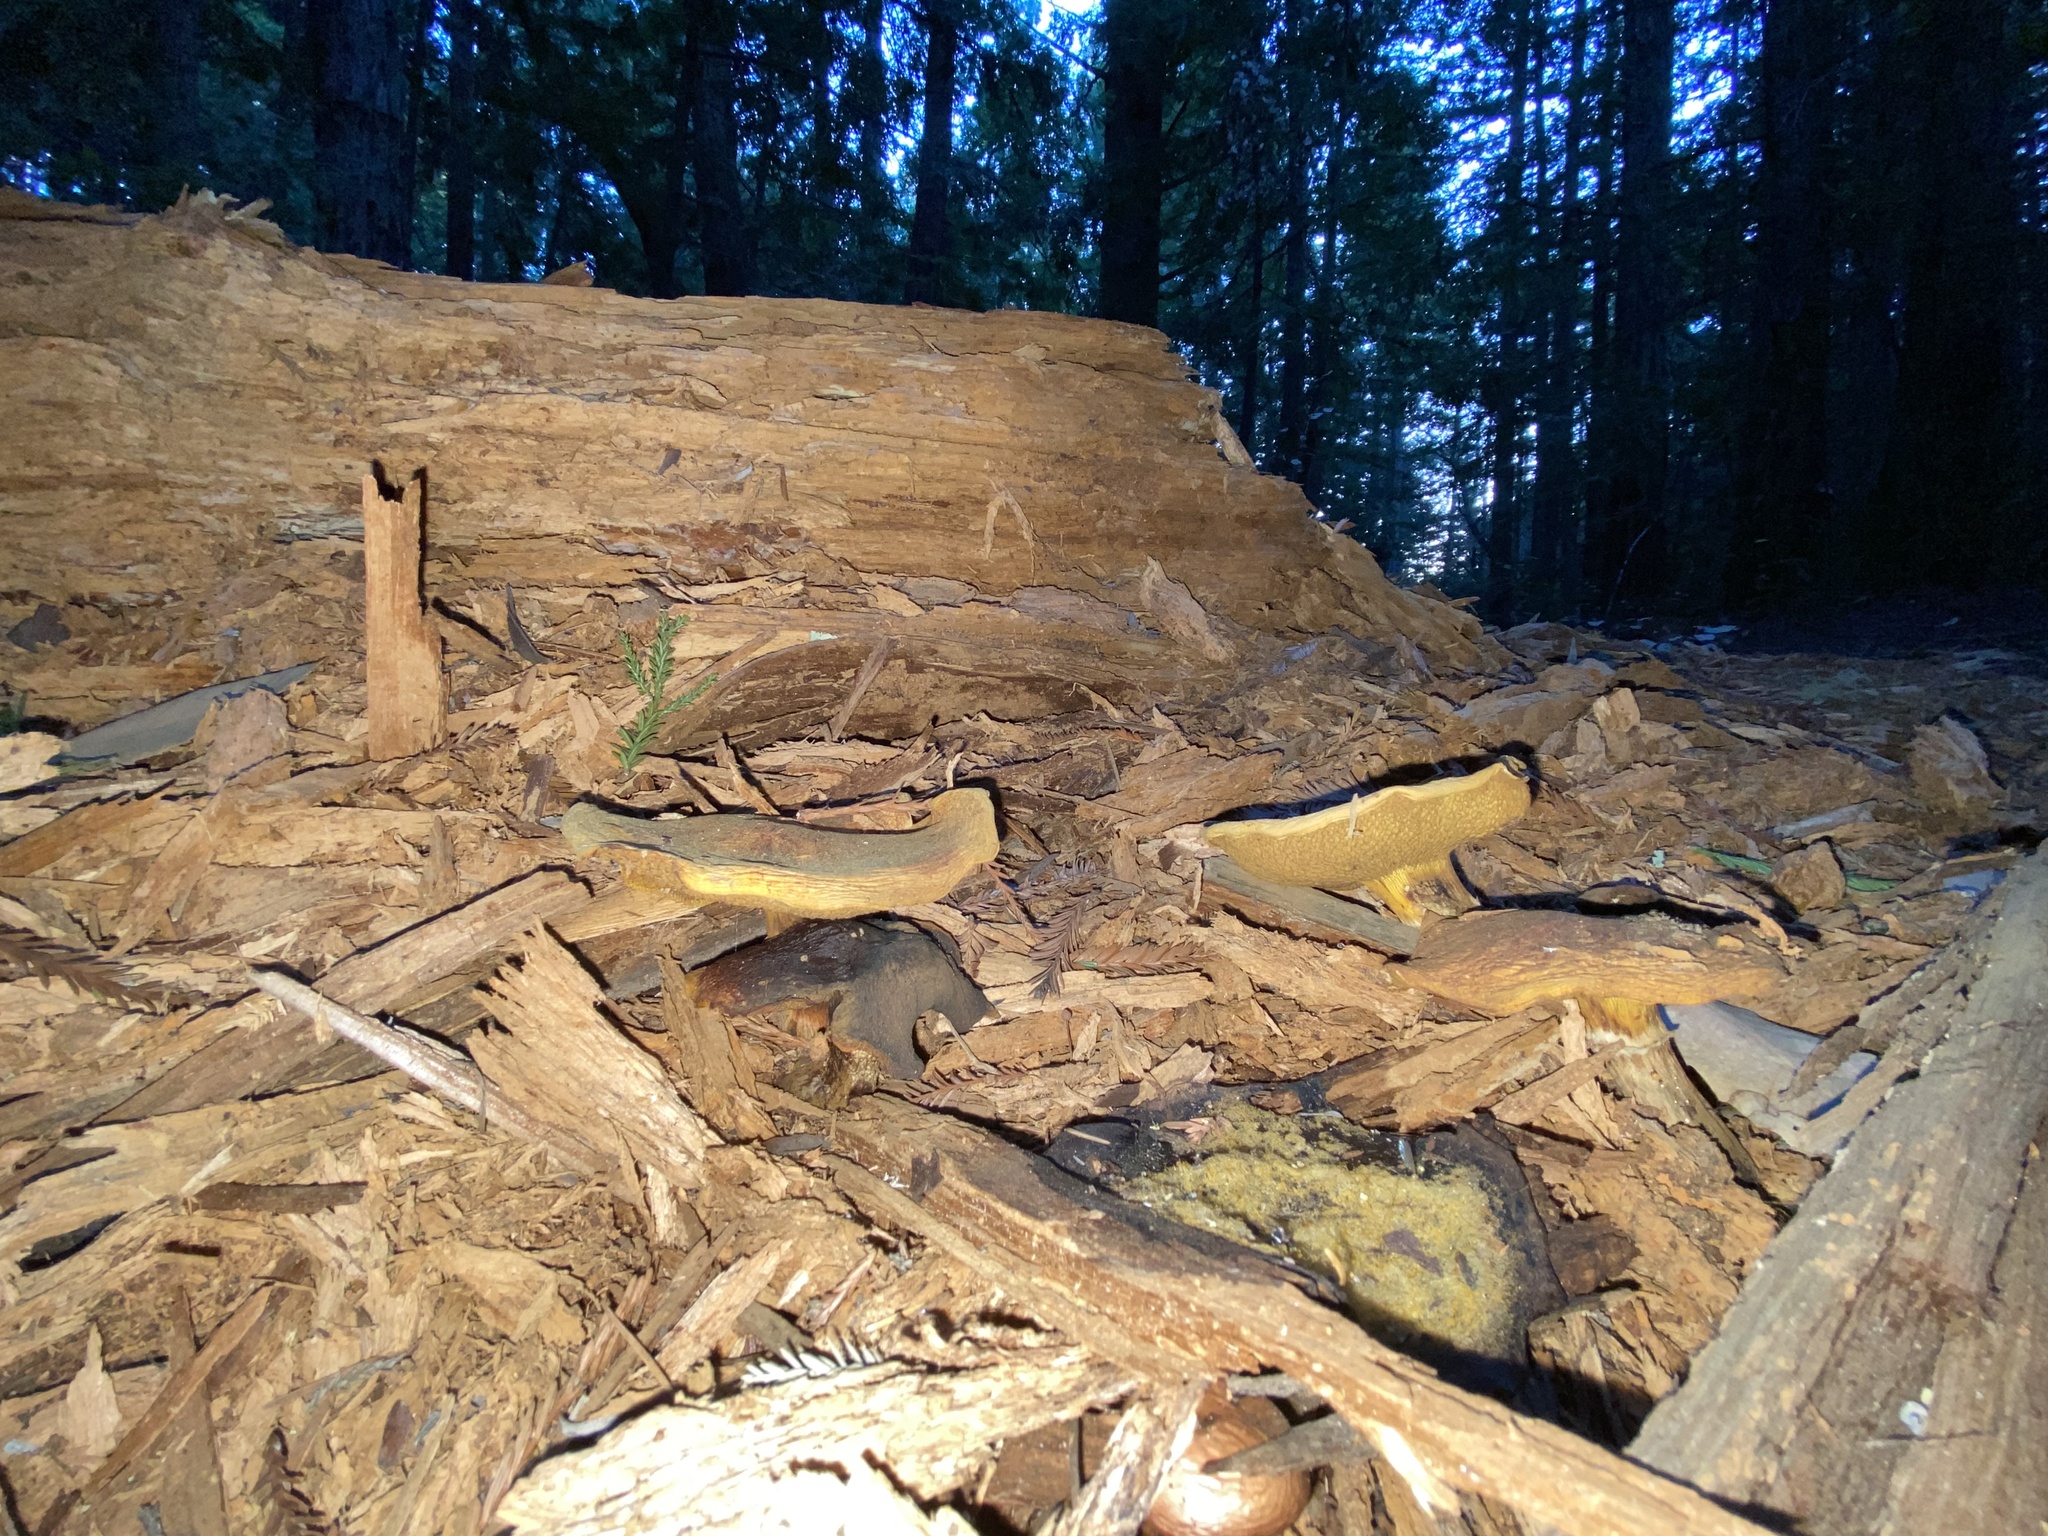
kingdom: Fungi
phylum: Basidiomycota
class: Agaricomycetes
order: Boletales
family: Suillaceae
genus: Suillus
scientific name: Suillus caerulescens
